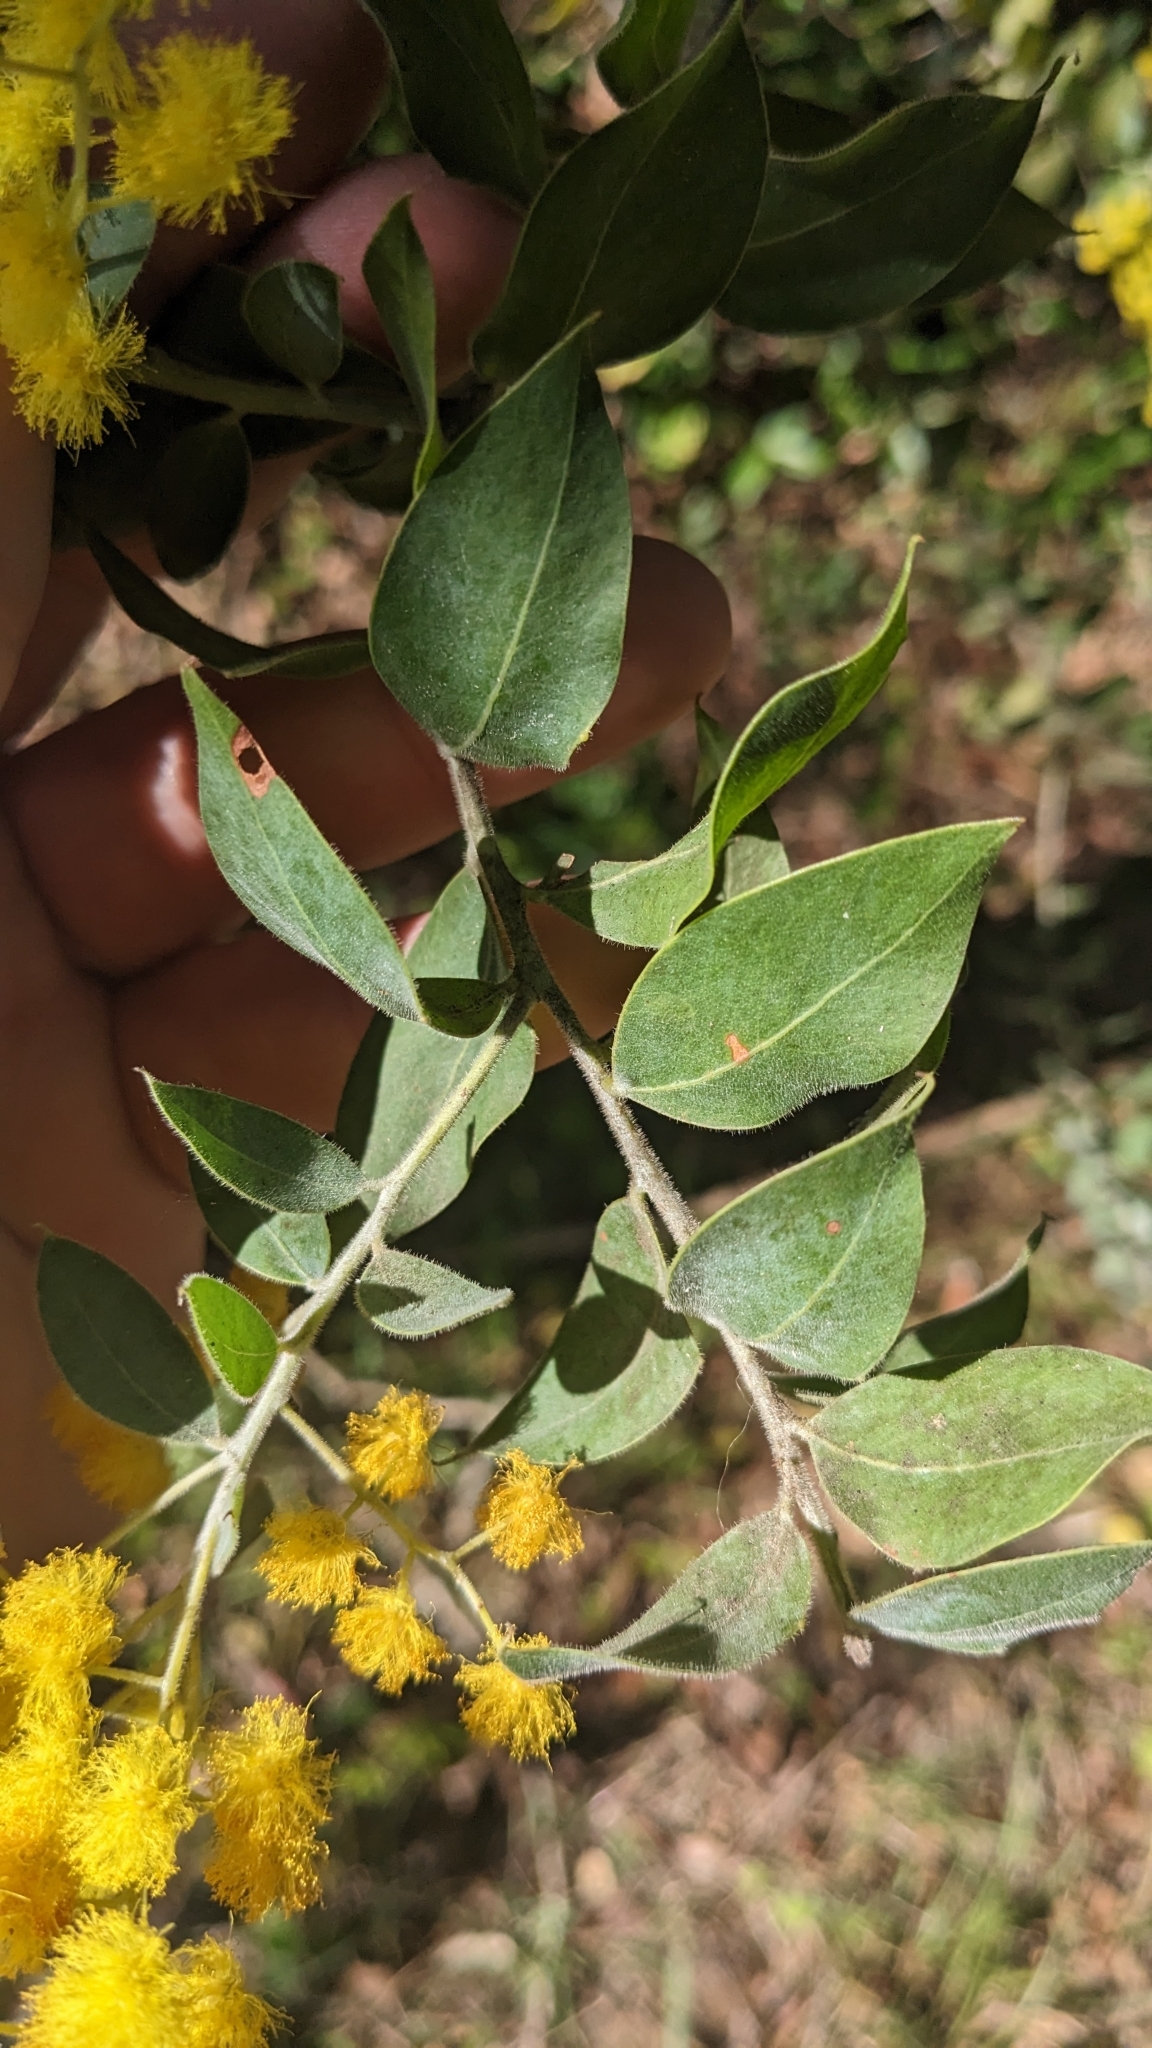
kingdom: Plantae
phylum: Tracheophyta
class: Magnoliopsida
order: Fabales
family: Fabaceae
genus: Acacia
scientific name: Acacia podalyriifolia
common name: Pearl wattle
